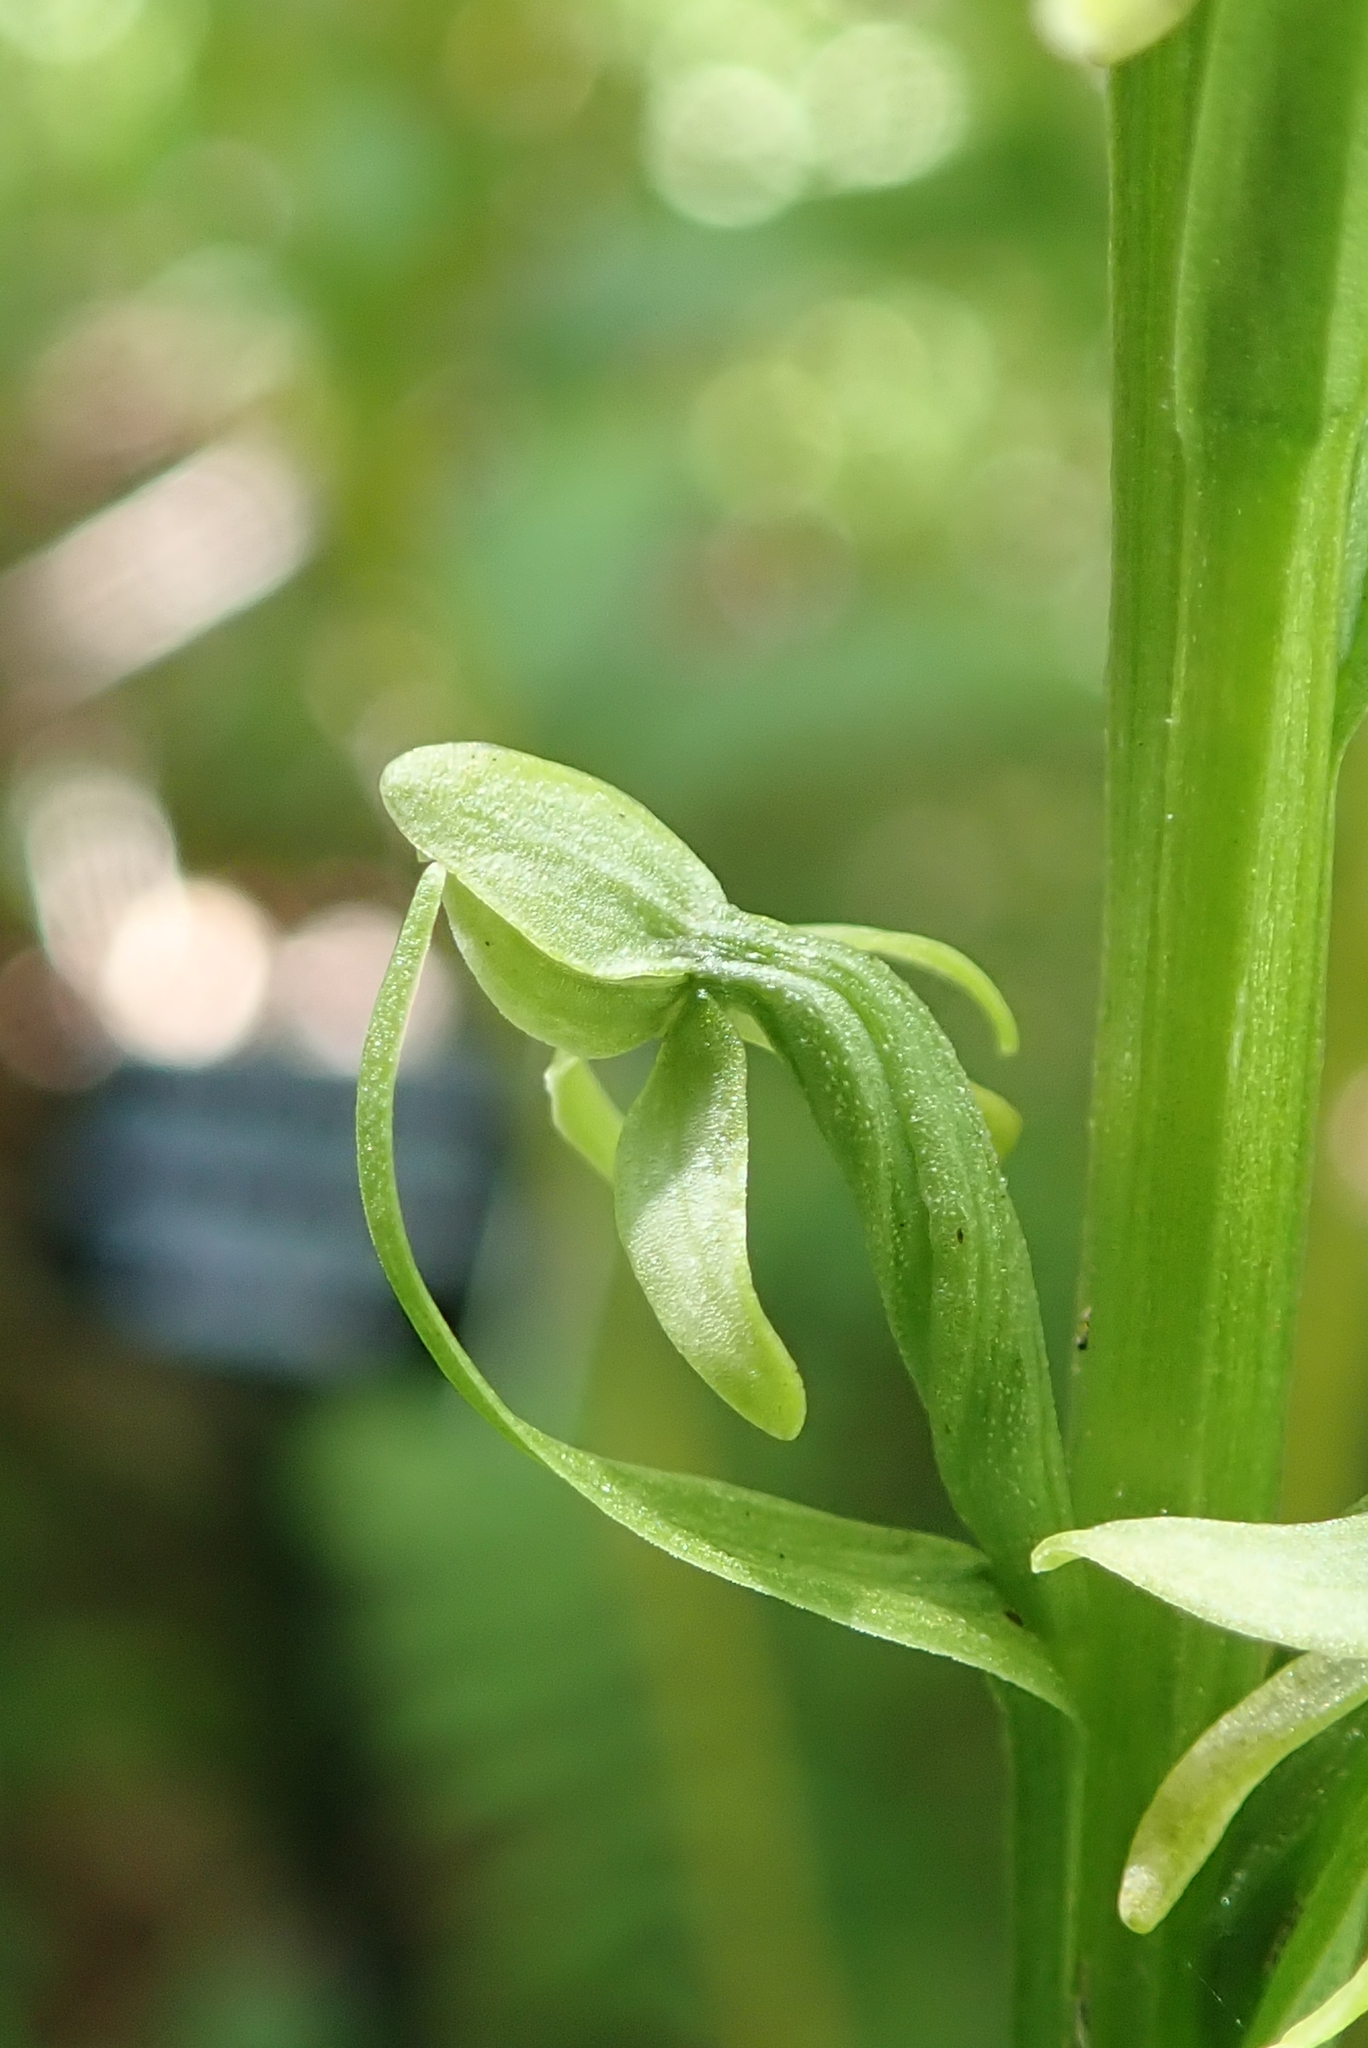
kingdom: Plantae
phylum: Tracheophyta
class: Liliopsida
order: Asparagales
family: Orchidaceae
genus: Platanthera
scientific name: Platanthera huronensis
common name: Fragrant green orchid
